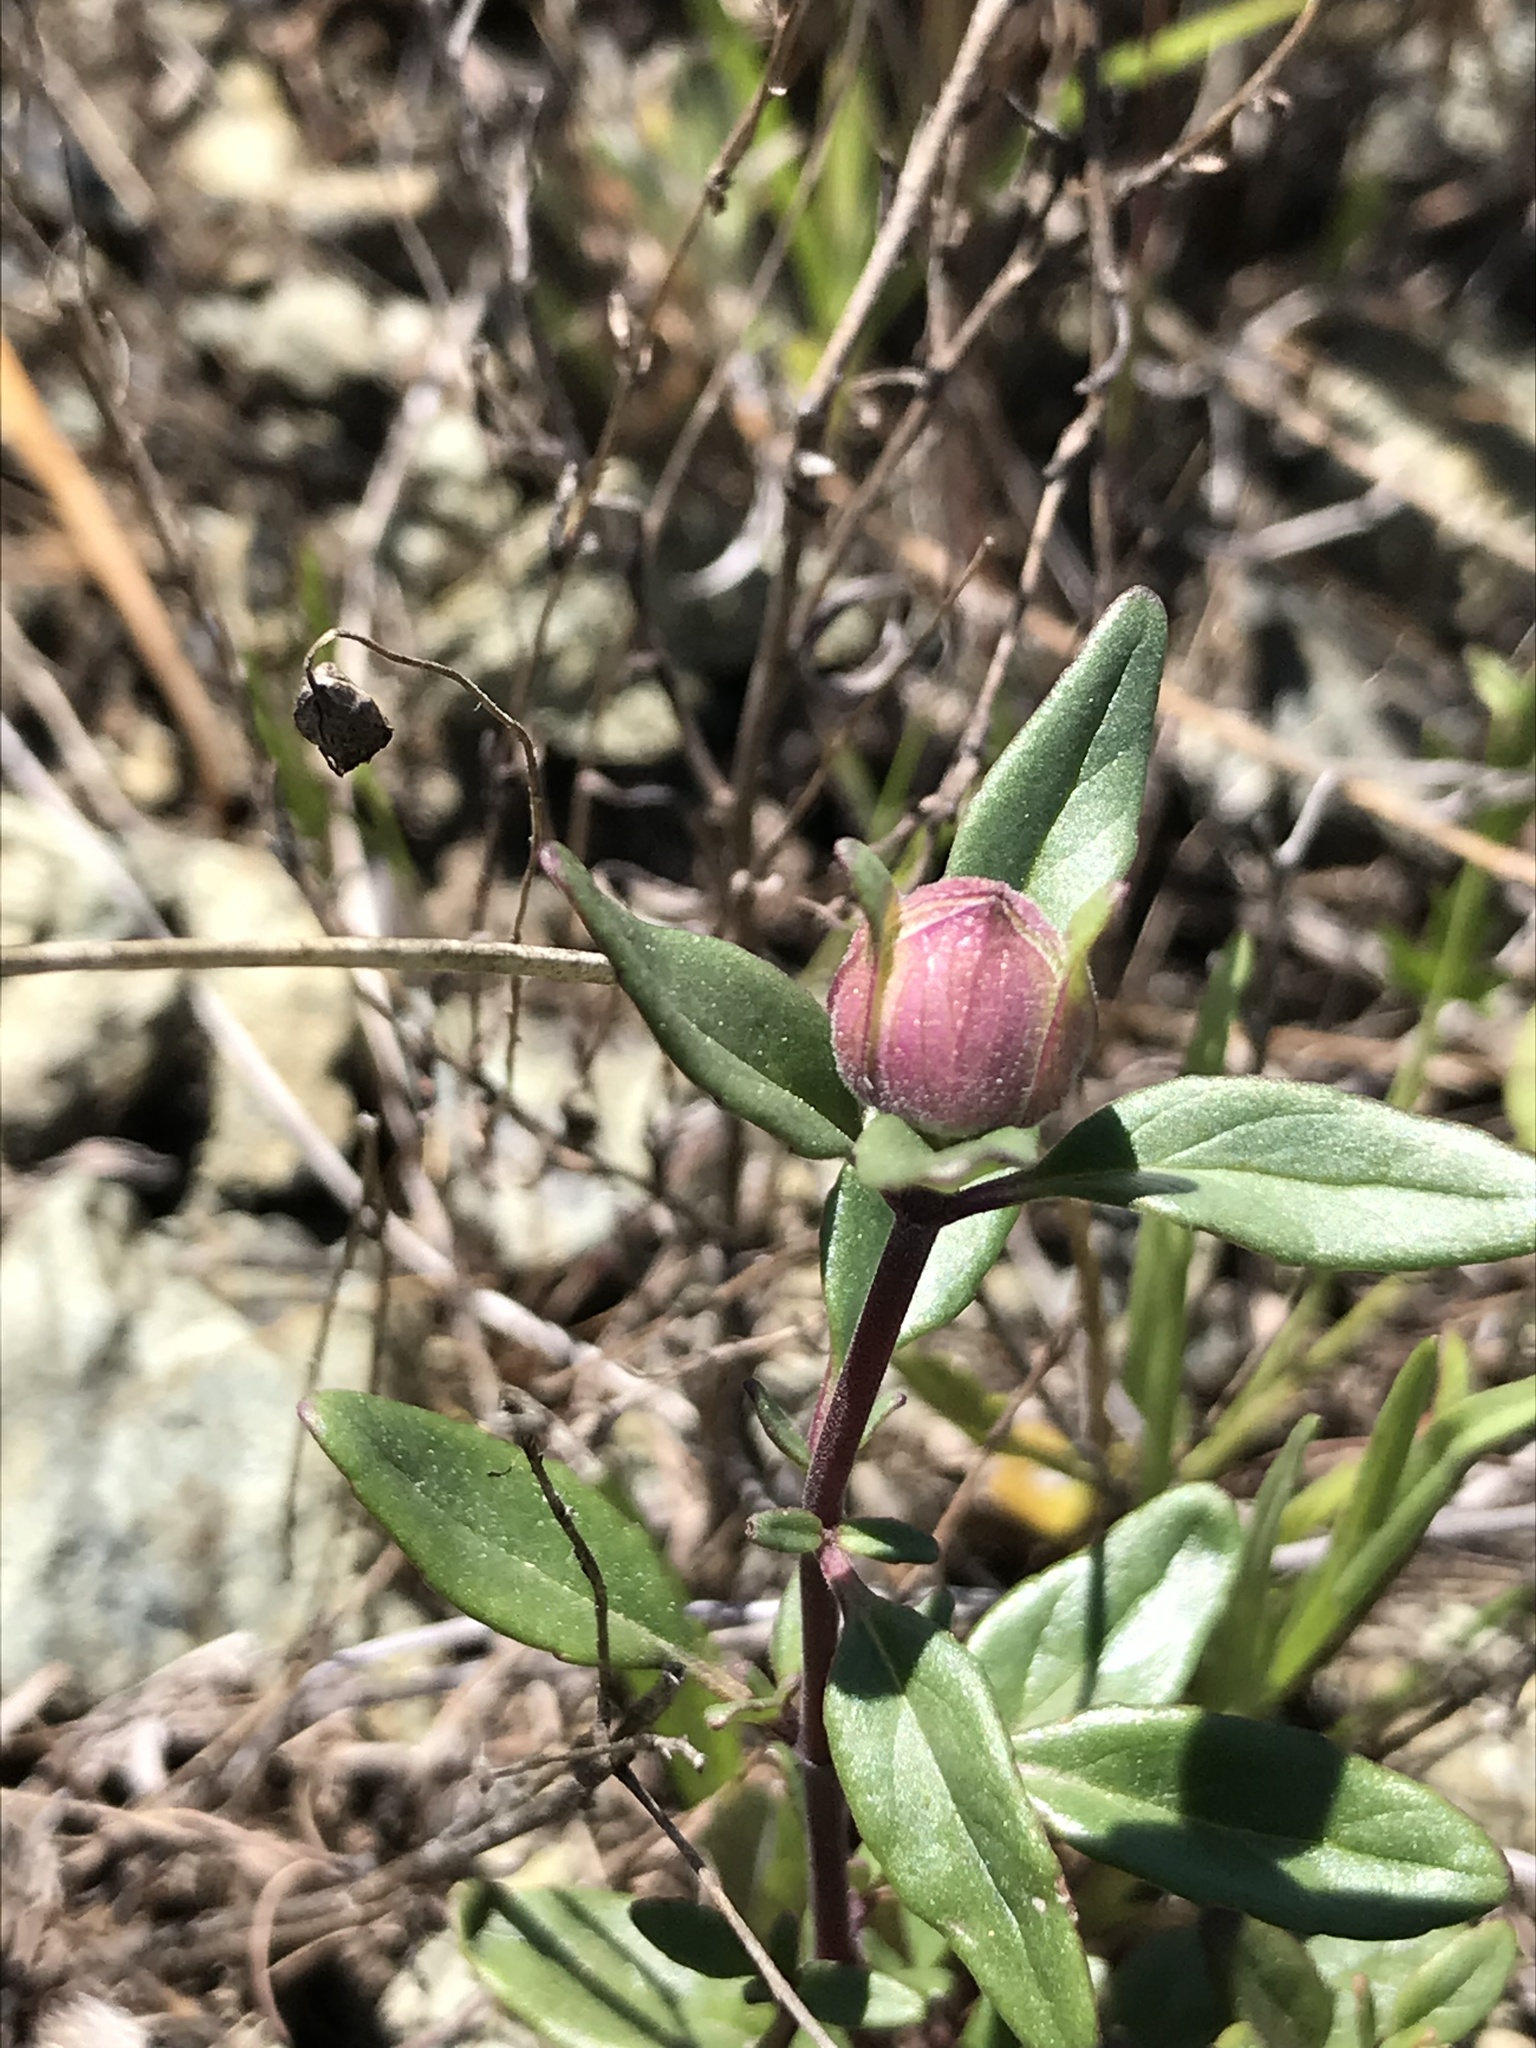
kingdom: Plantae
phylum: Tracheophyta
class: Magnoliopsida
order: Lamiales
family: Lamiaceae
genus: Monardella
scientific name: Monardella palmeri
